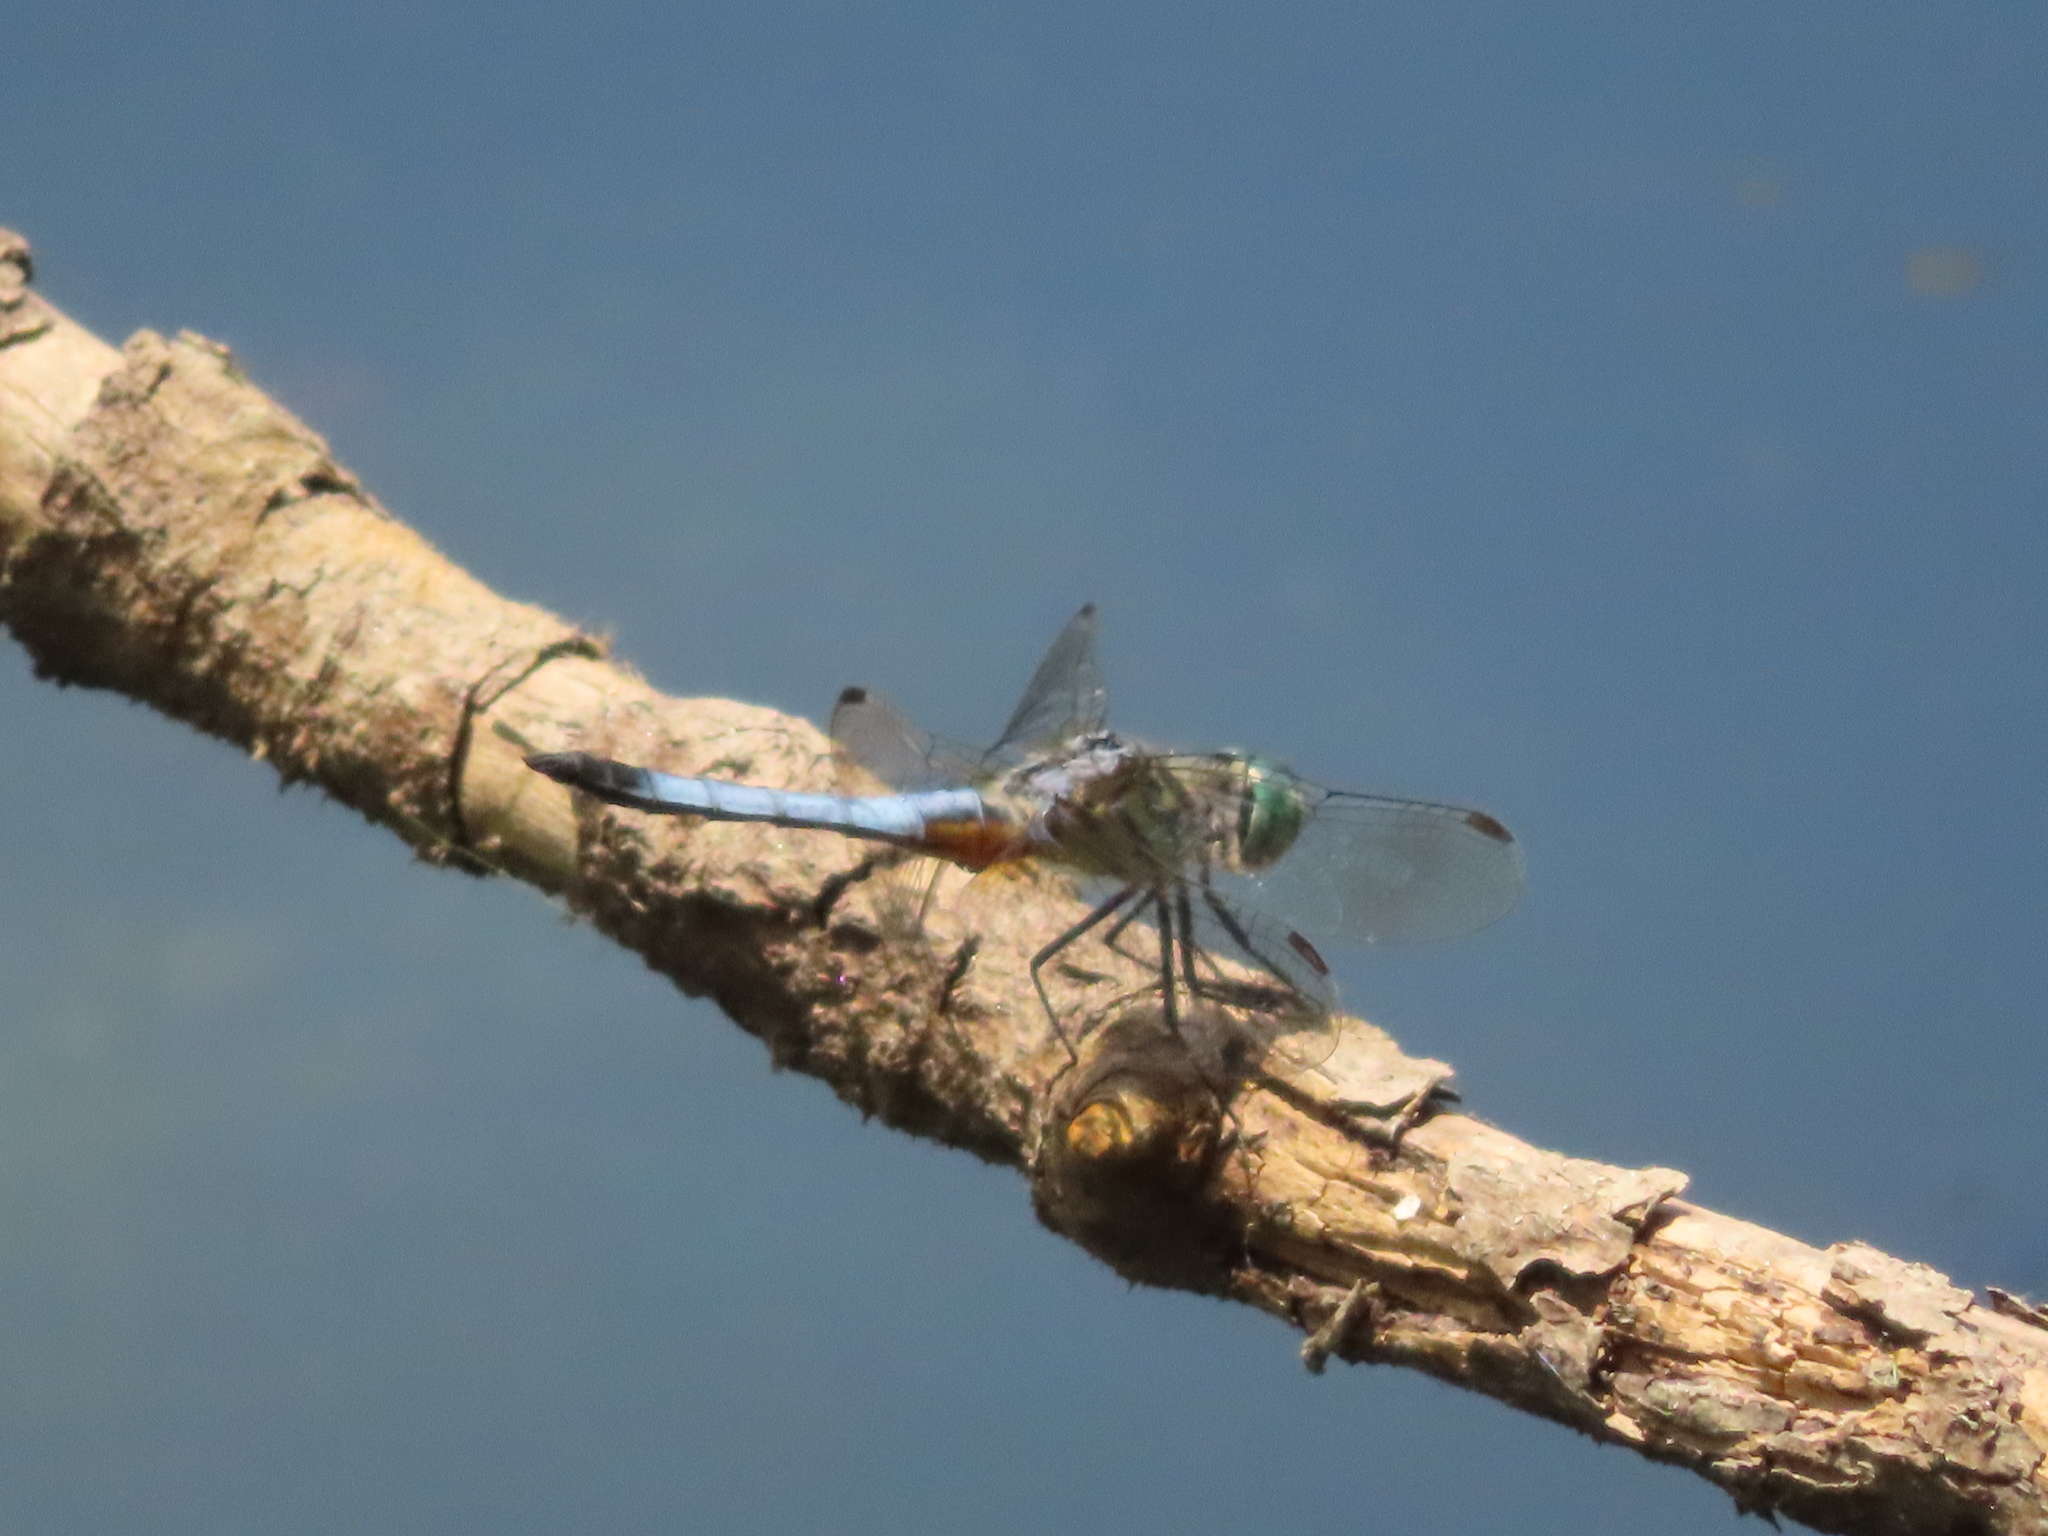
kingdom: Animalia
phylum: Arthropoda
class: Insecta
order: Odonata
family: Libellulidae
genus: Pachydiplax
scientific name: Pachydiplax longipennis
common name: Blue dasher
